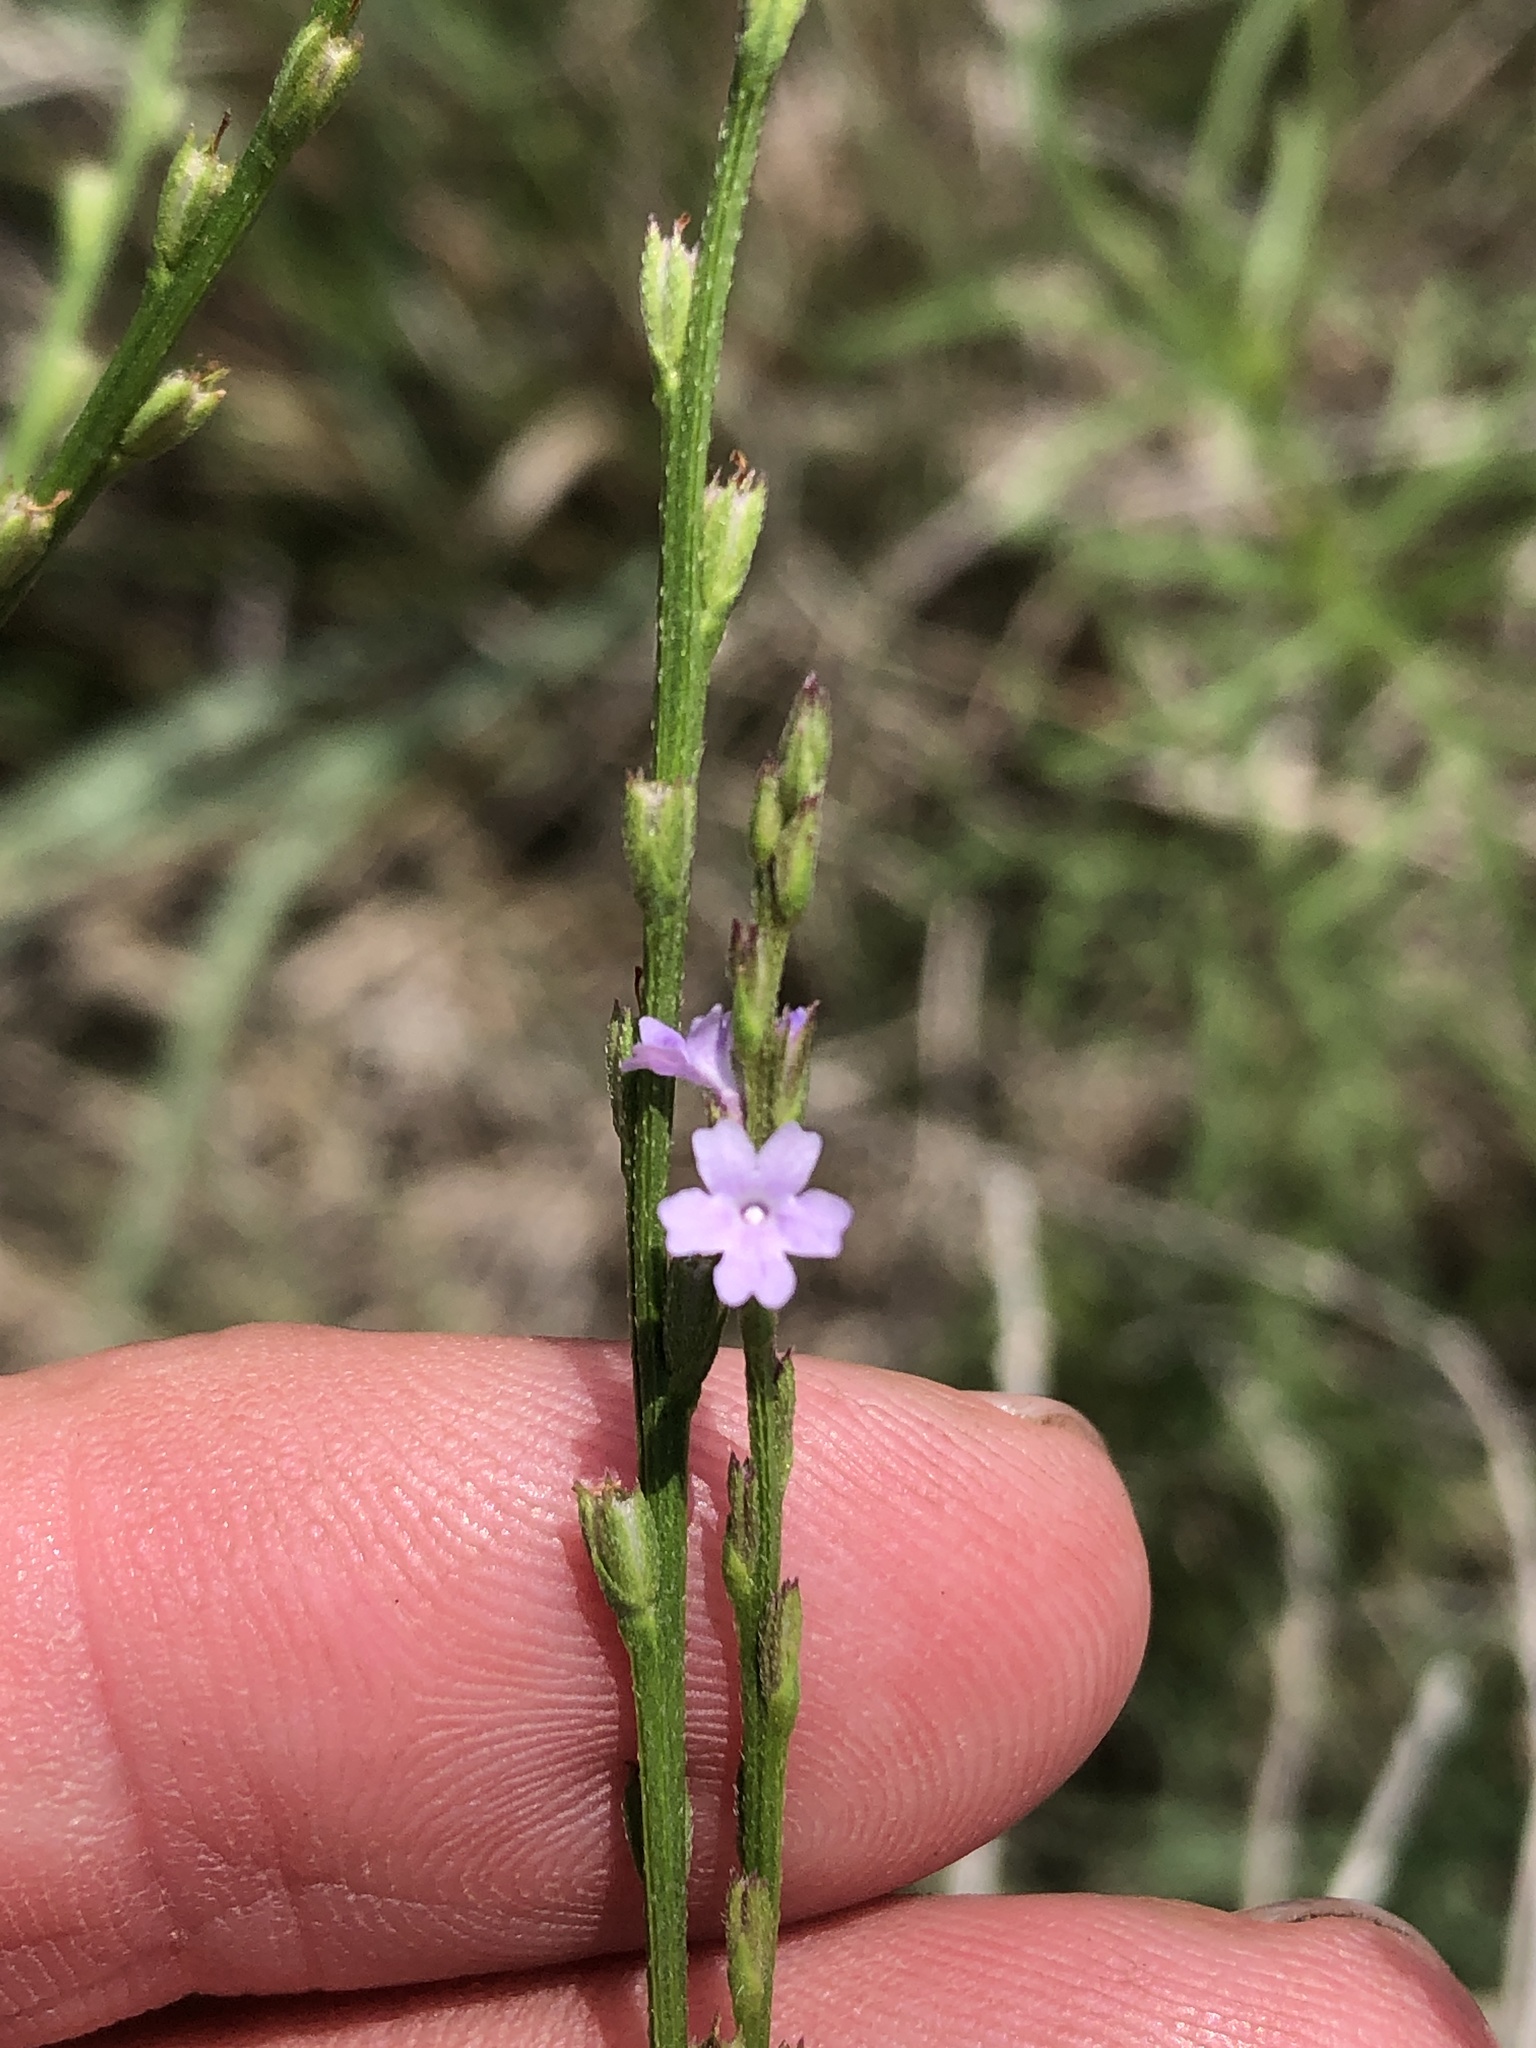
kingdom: Plantae
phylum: Tracheophyta
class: Magnoliopsida
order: Lamiales
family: Verbenaceae
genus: Verbena
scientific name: Verbena halei
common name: Texas vervain
